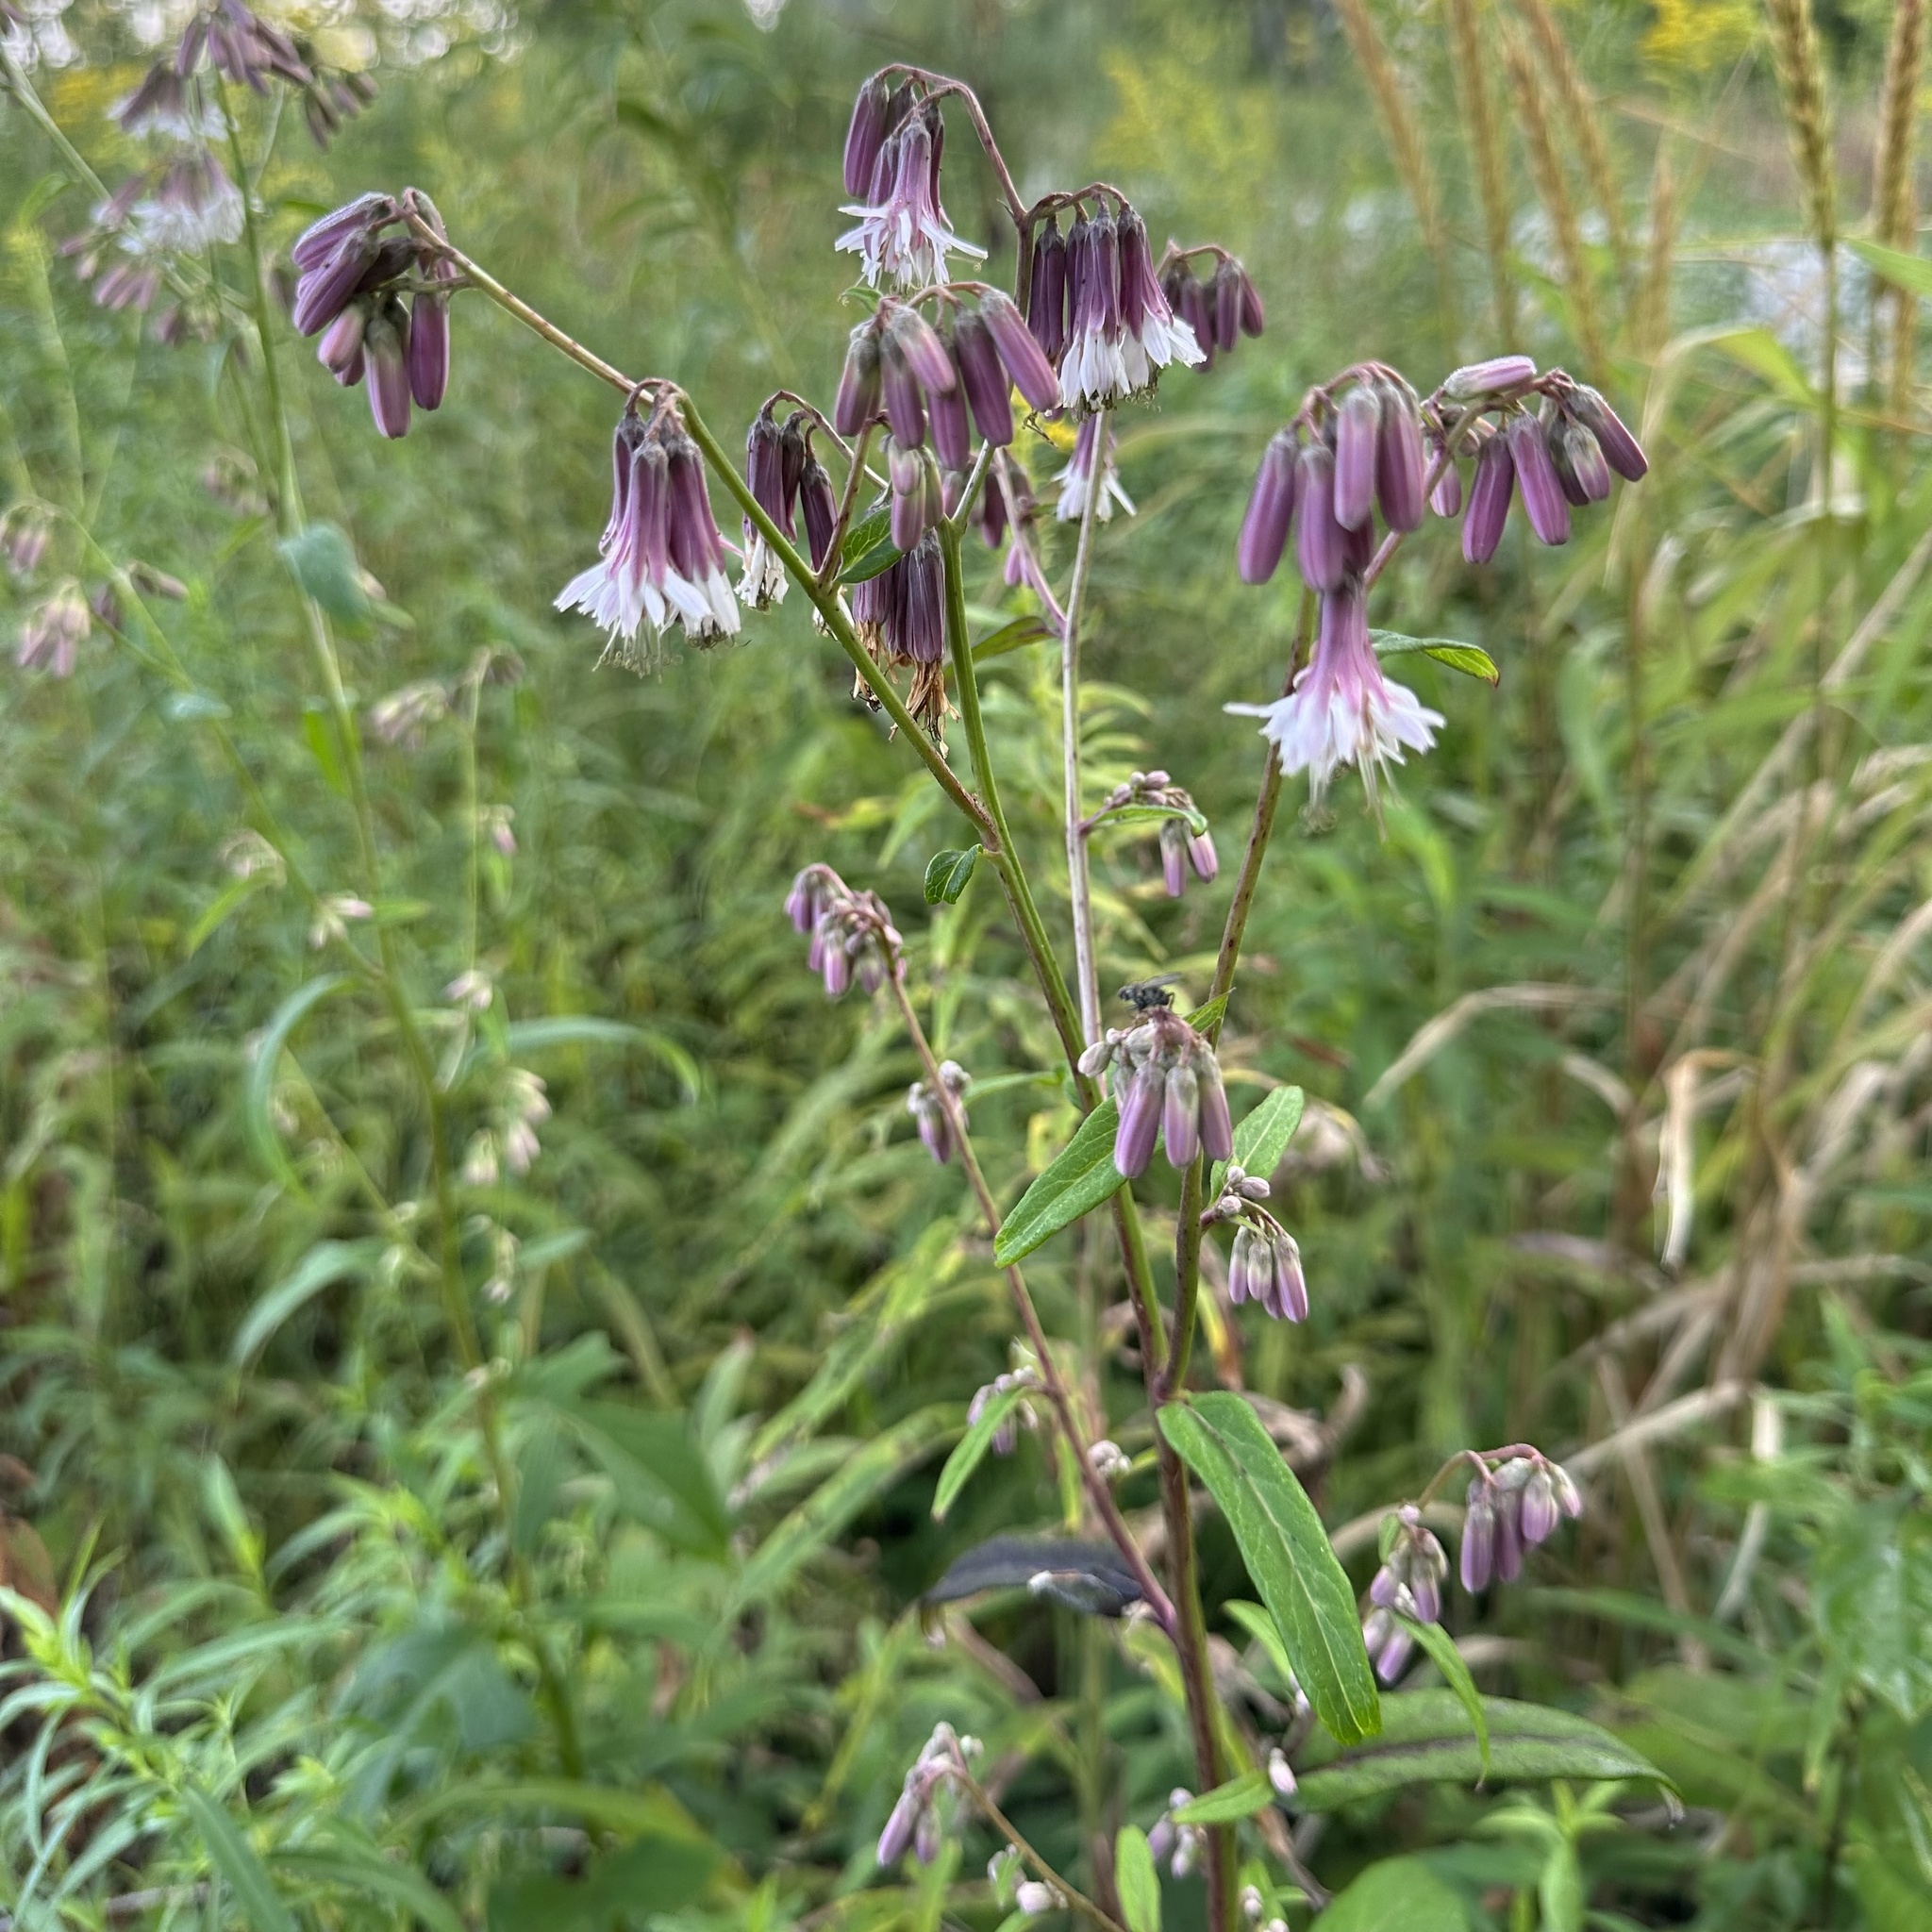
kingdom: Plantae
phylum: Tracheophyta
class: Magnoliopsida
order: Asterales
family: Asteraceae
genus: Nabalus
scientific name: Nabalus albus
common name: White rattlesnakeroot
